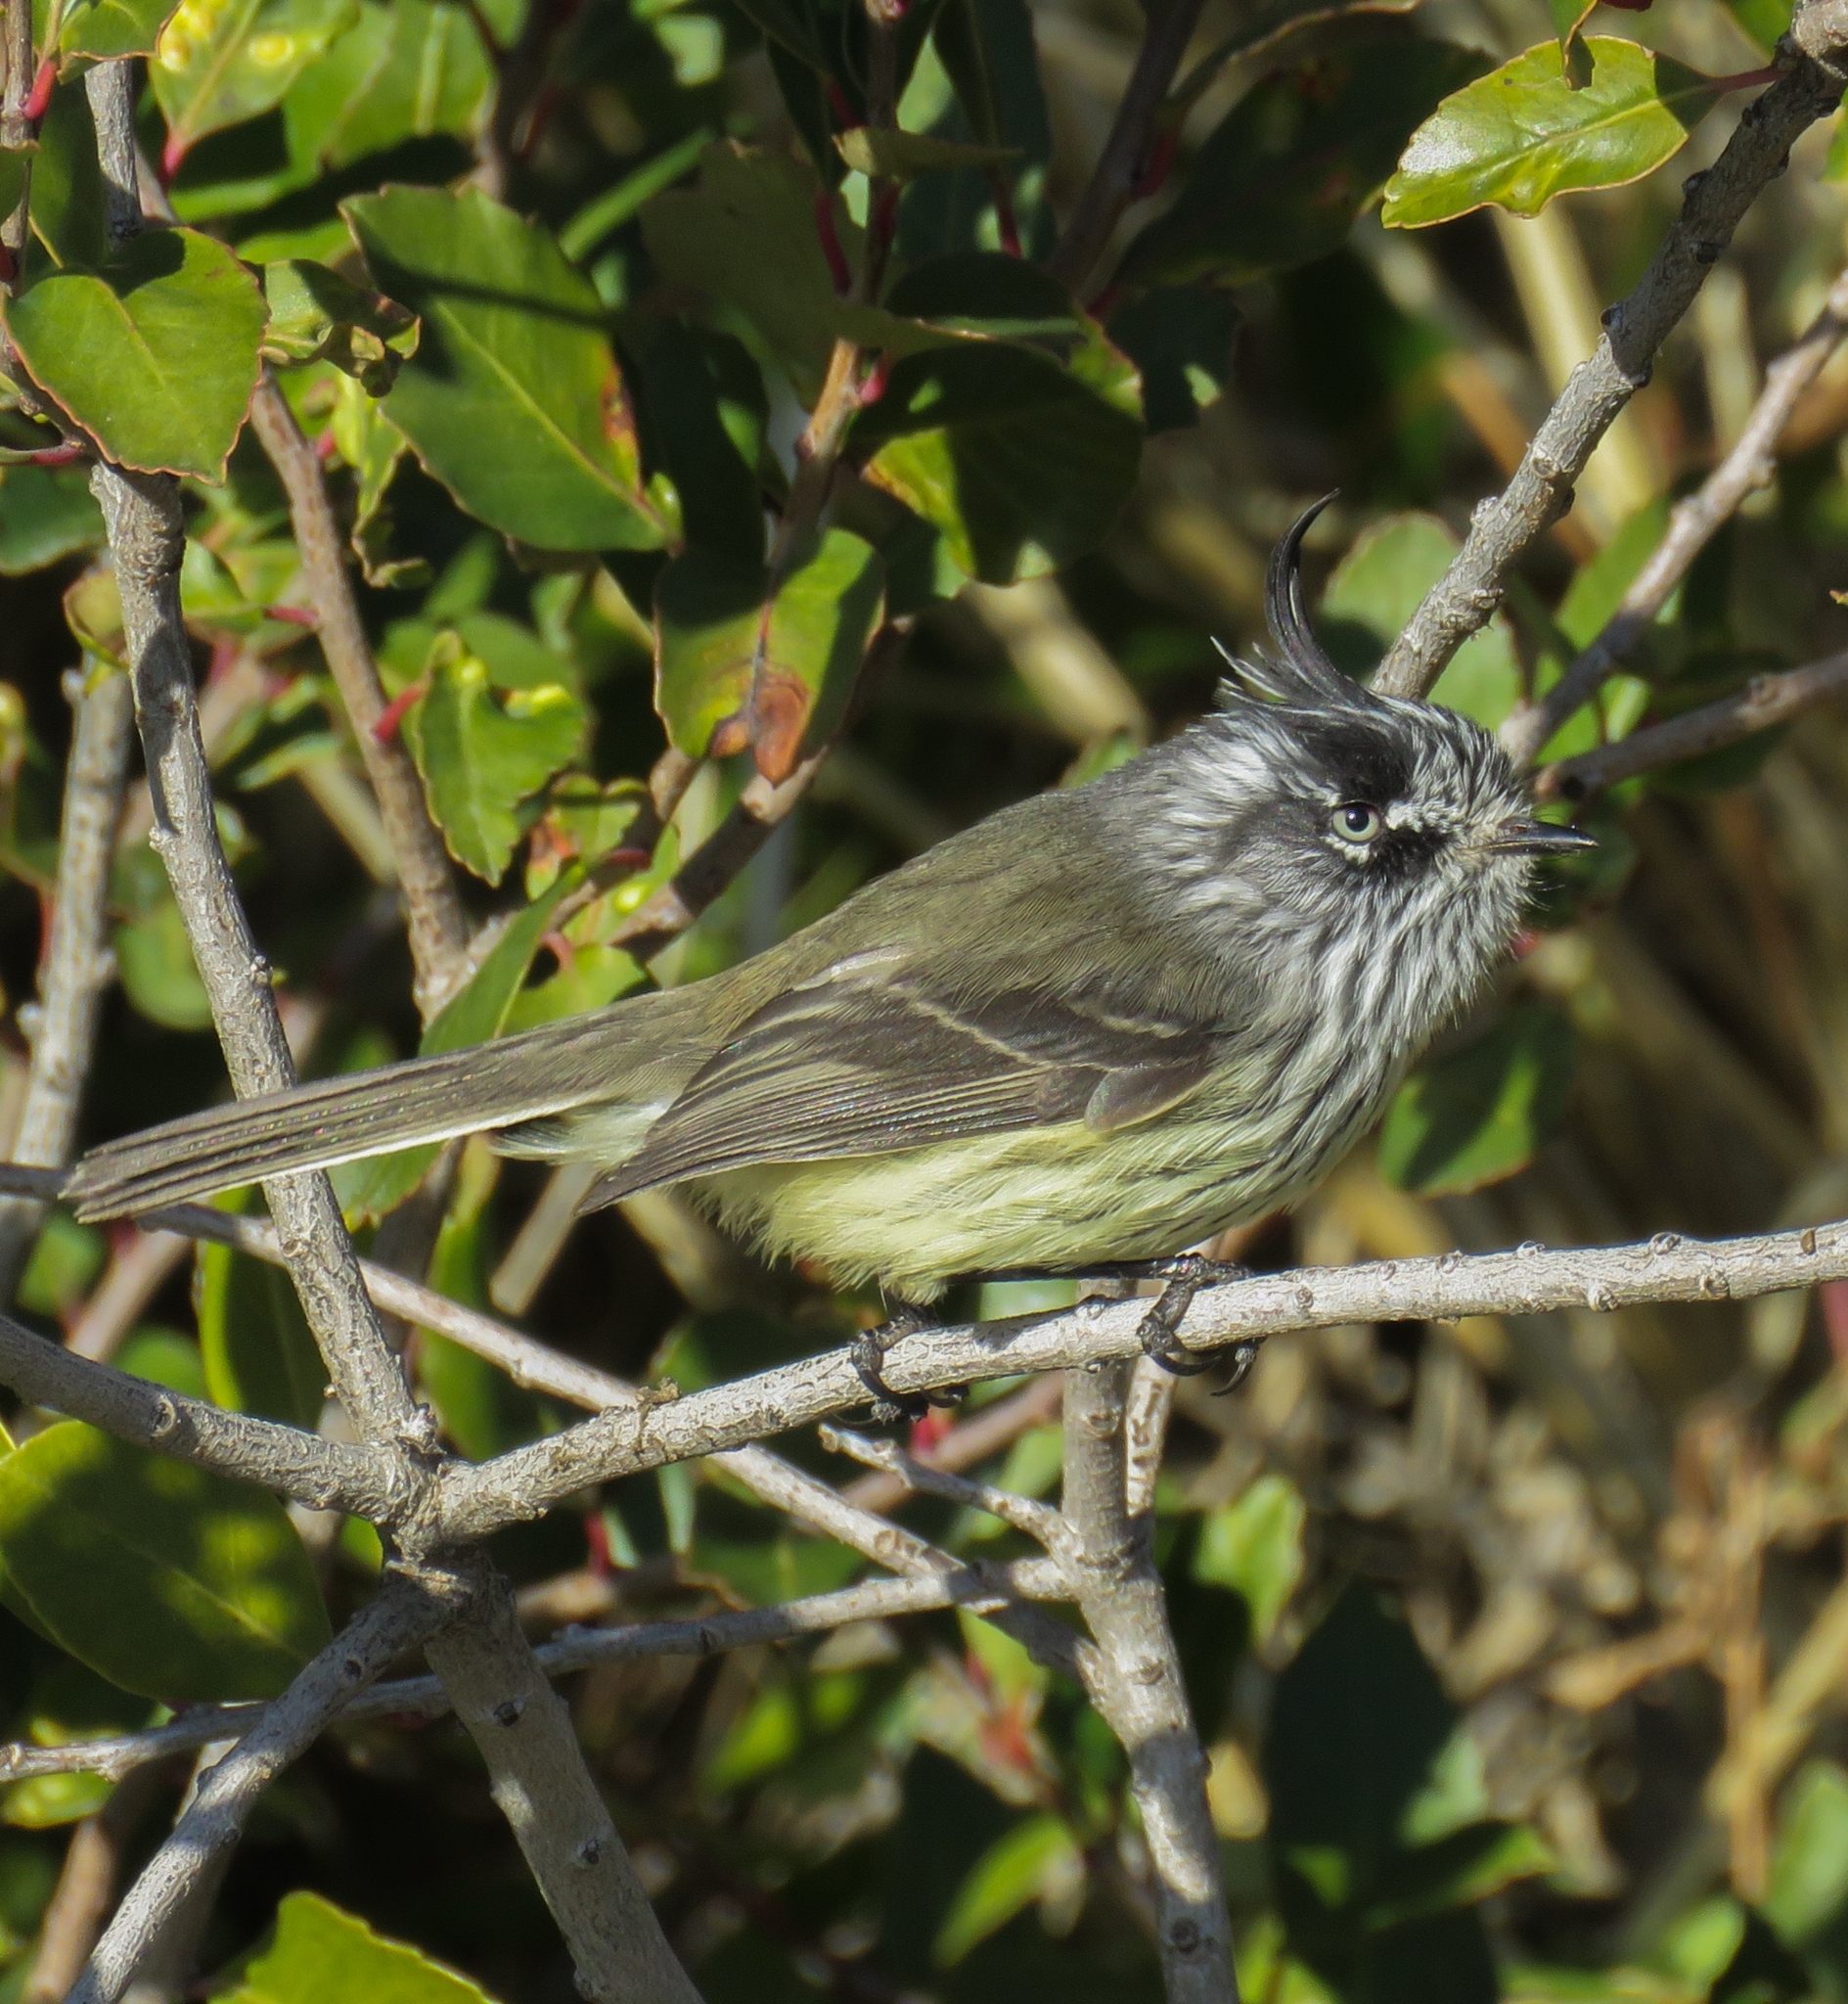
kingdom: Animalia
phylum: Chordata
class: Aves
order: Passeriformes
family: Tyrannidae
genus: Anairetes
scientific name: Anairetes parulus
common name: Tufted tit-tyrant
